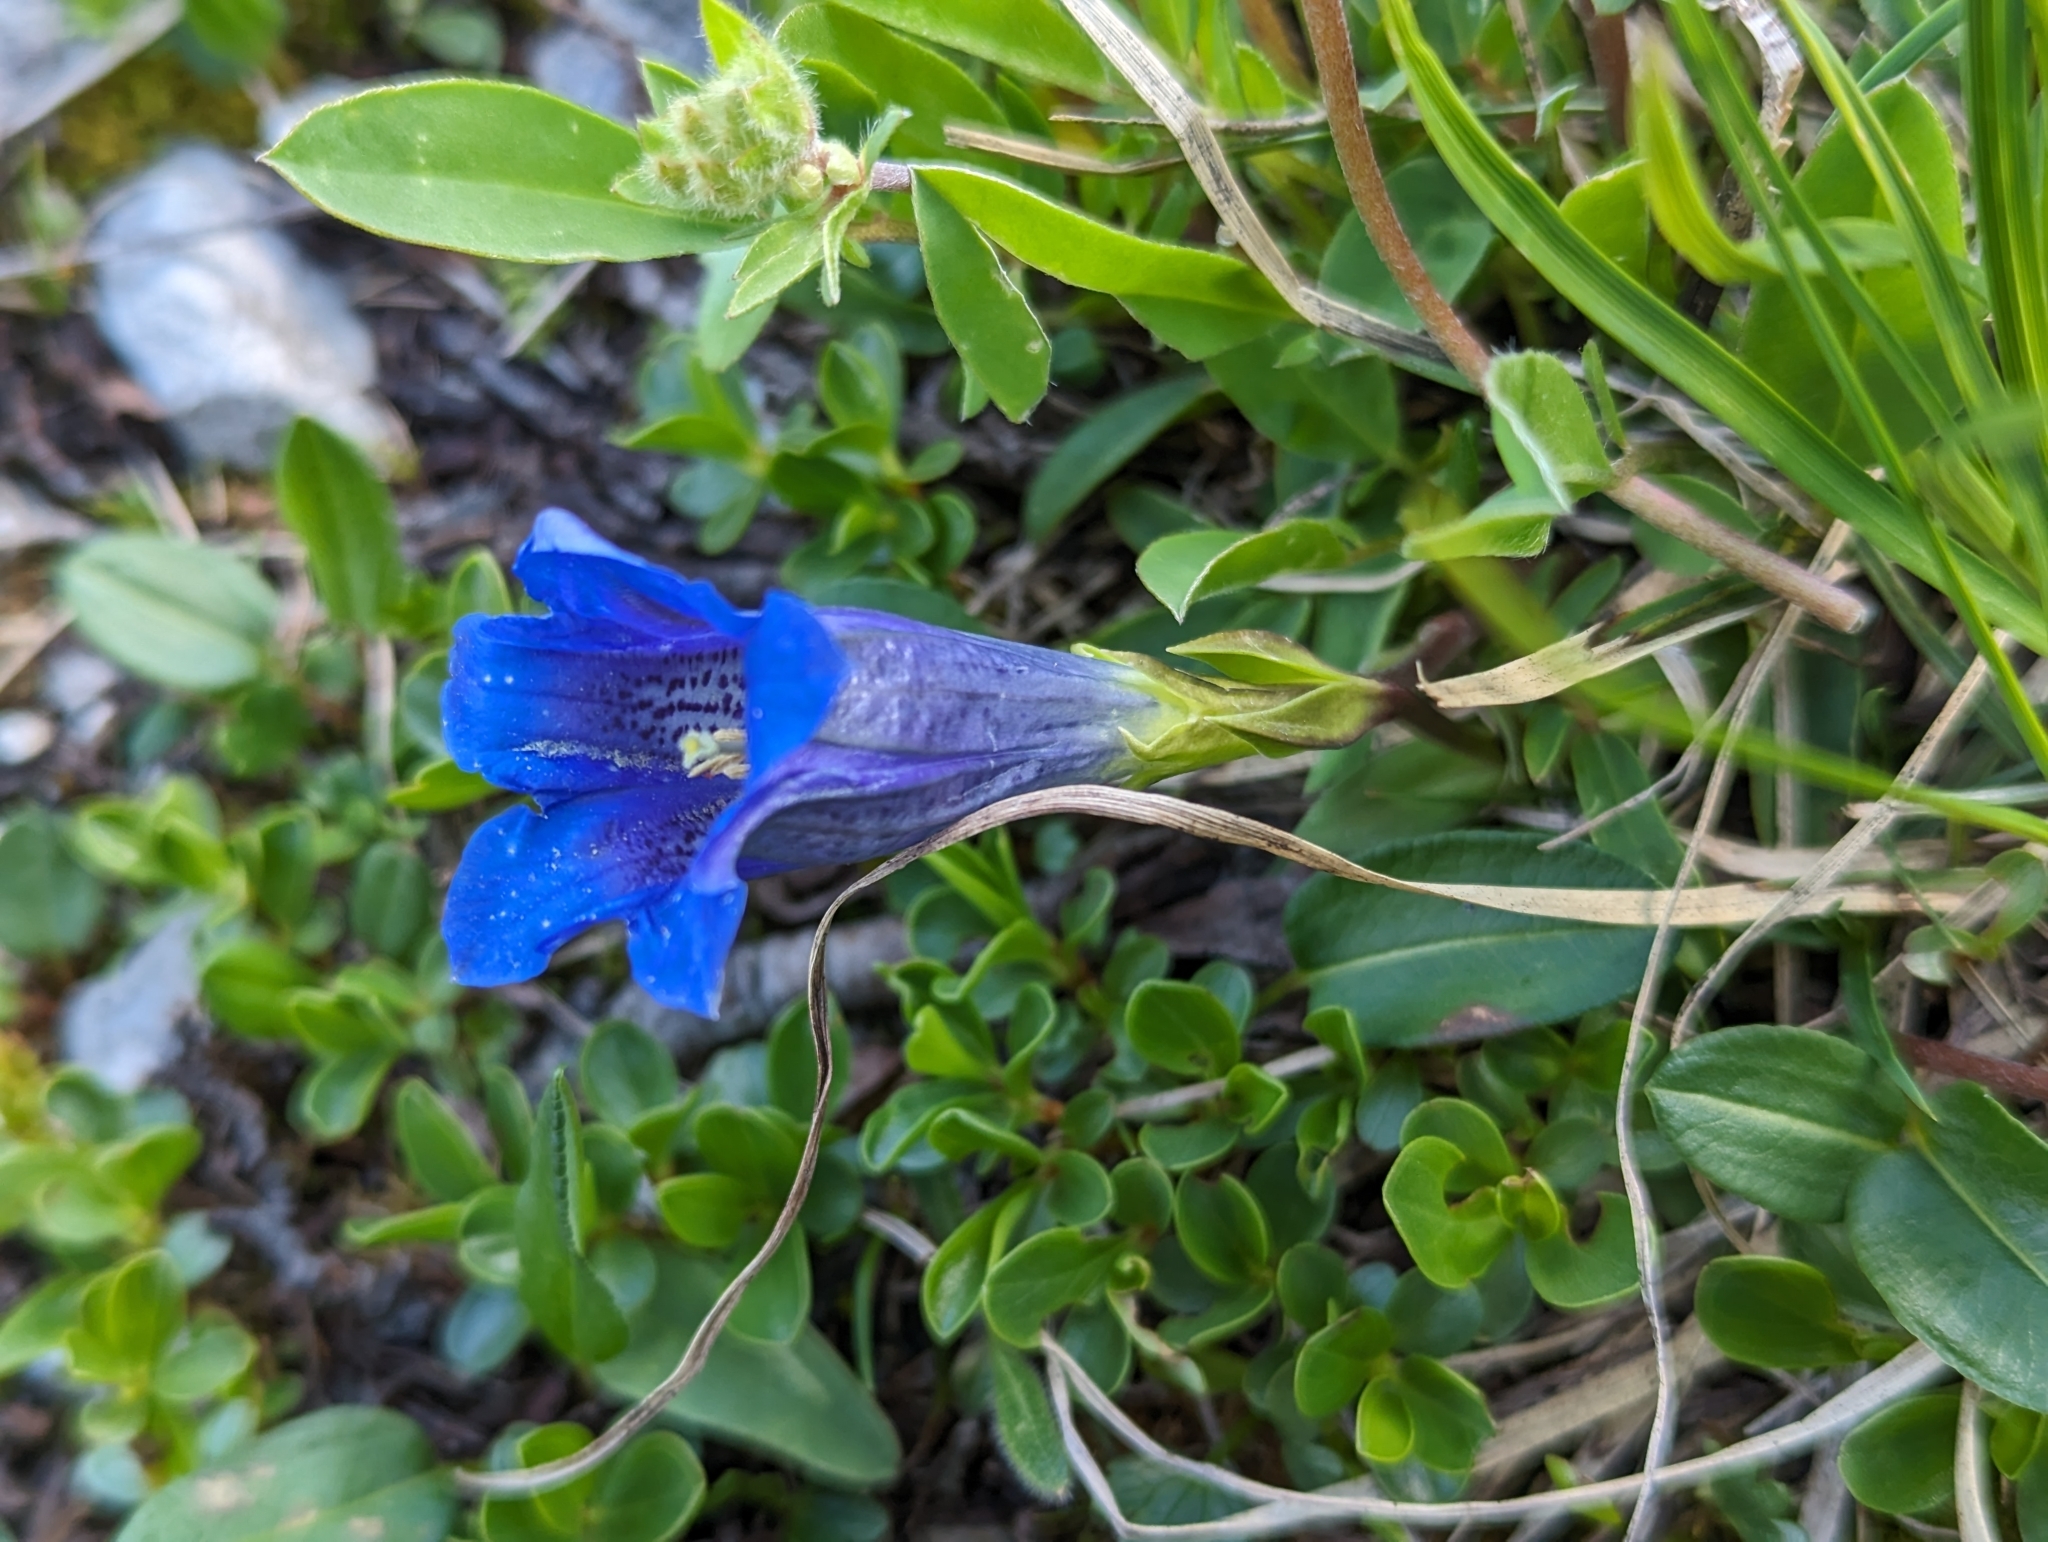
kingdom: Plantae
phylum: Tracheophyta
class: Magnoliopsida
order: Gentianales
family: Gentianaceae
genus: Gentiana
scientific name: Gentiana clusii
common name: Trumpet gentian
